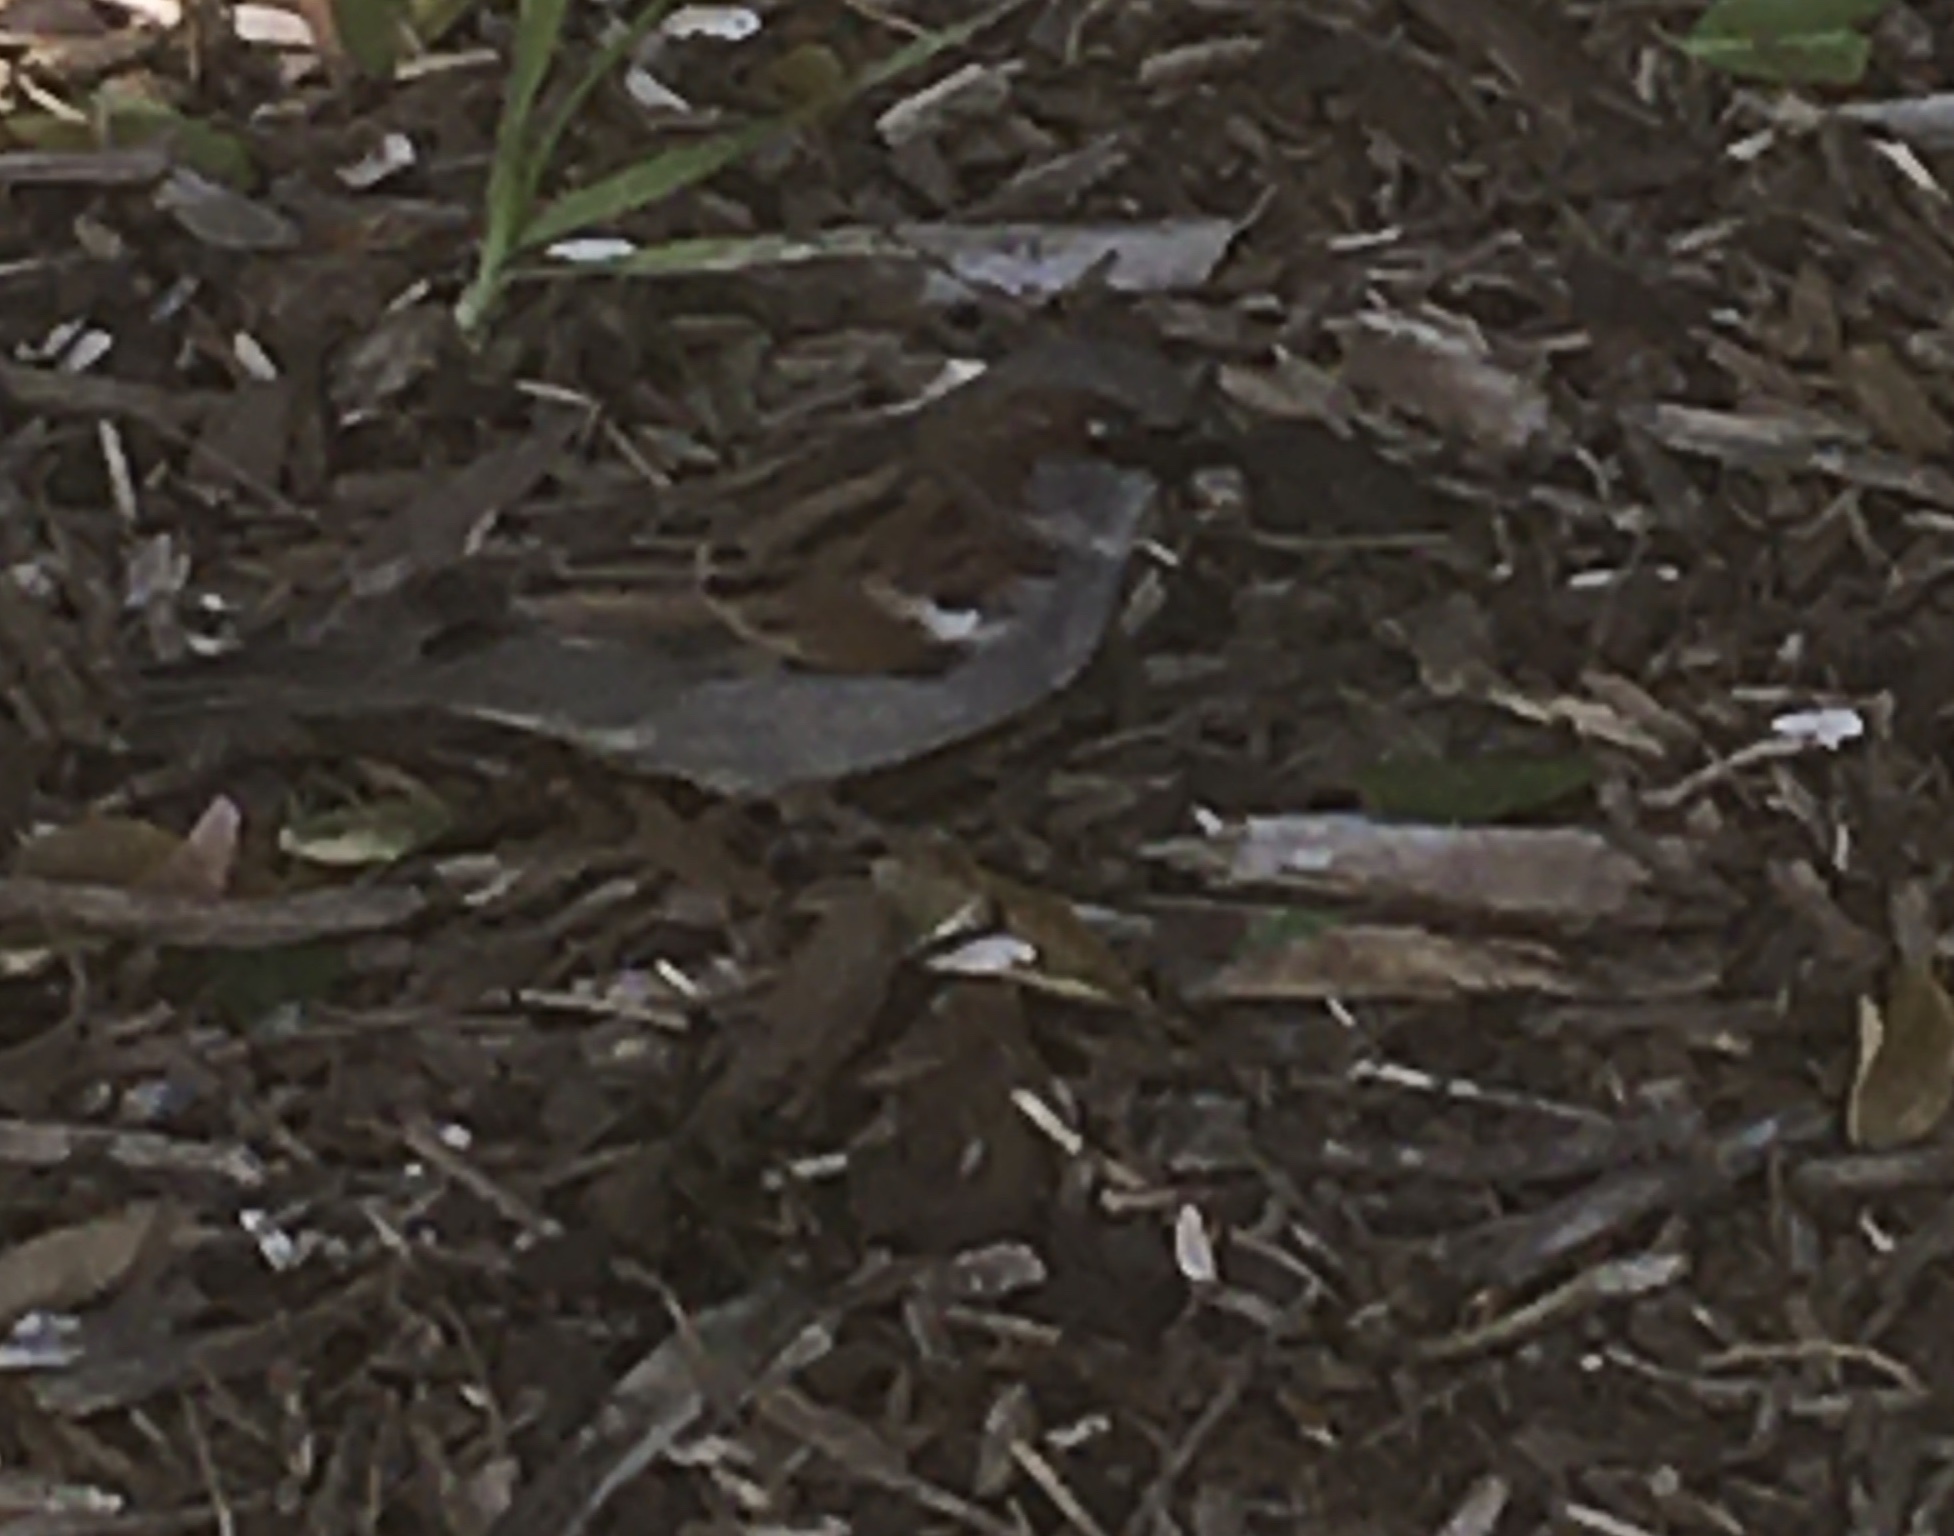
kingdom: Animalia
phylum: Chordata
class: Aves
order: Passeriformes
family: Passeridae
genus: Passer
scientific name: Passer domesticus
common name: House sparrow
